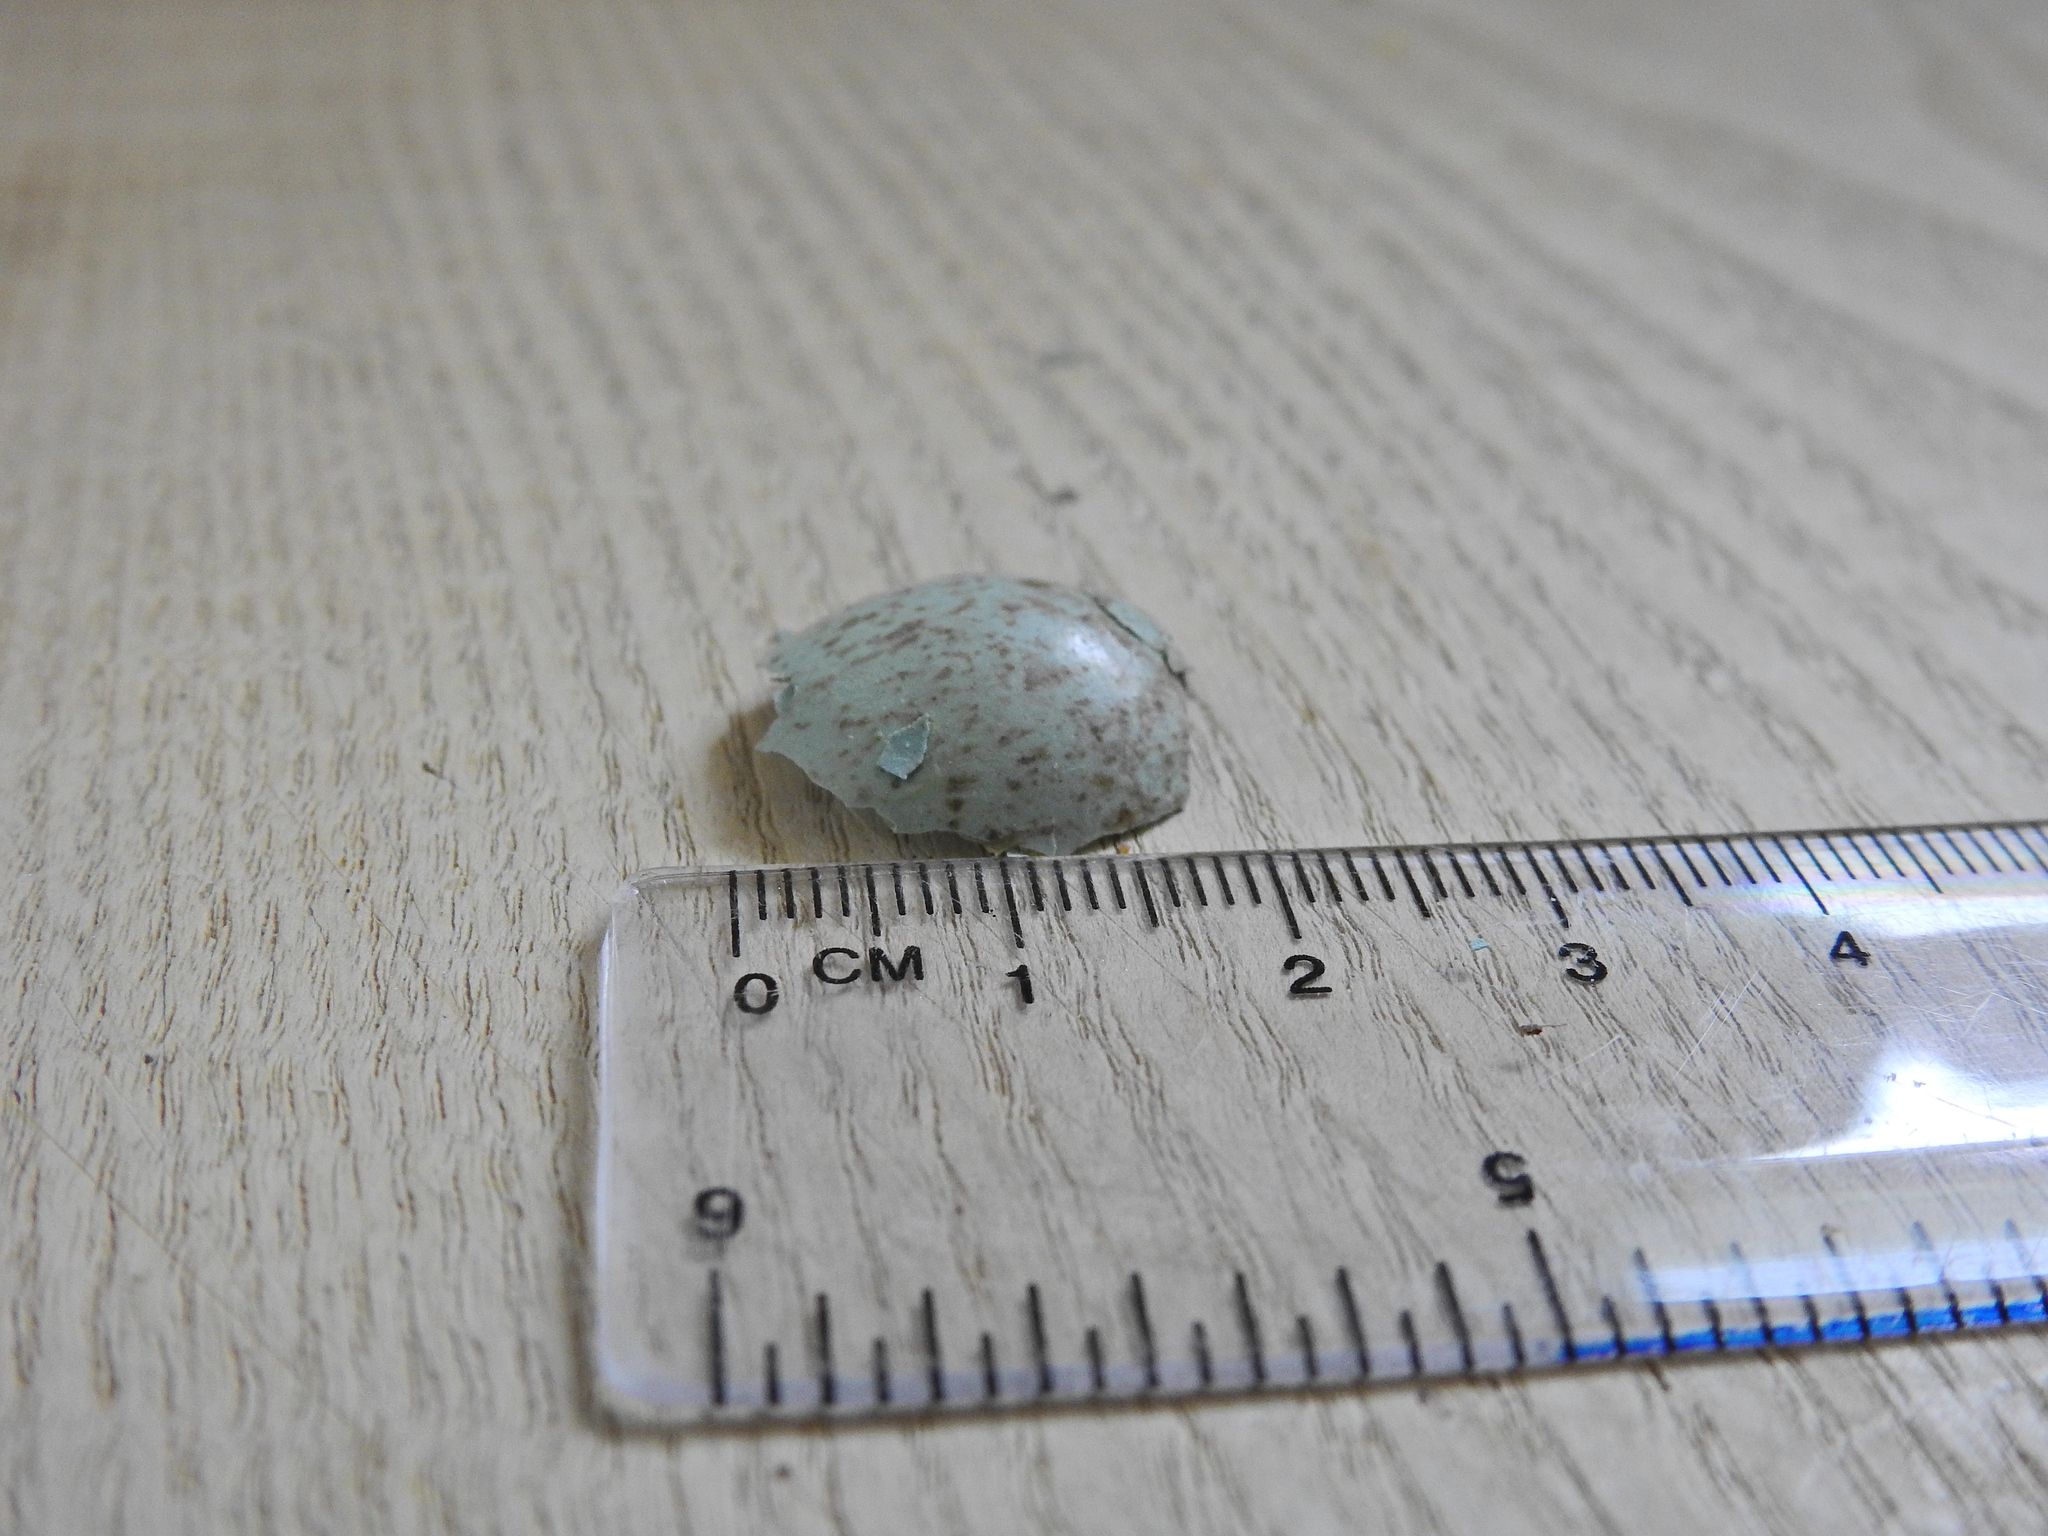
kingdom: Animalia
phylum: Chordata
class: Aves
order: Passeriformes
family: Turdidae
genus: Turdus
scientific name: Turdus merula
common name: Common blackbird
